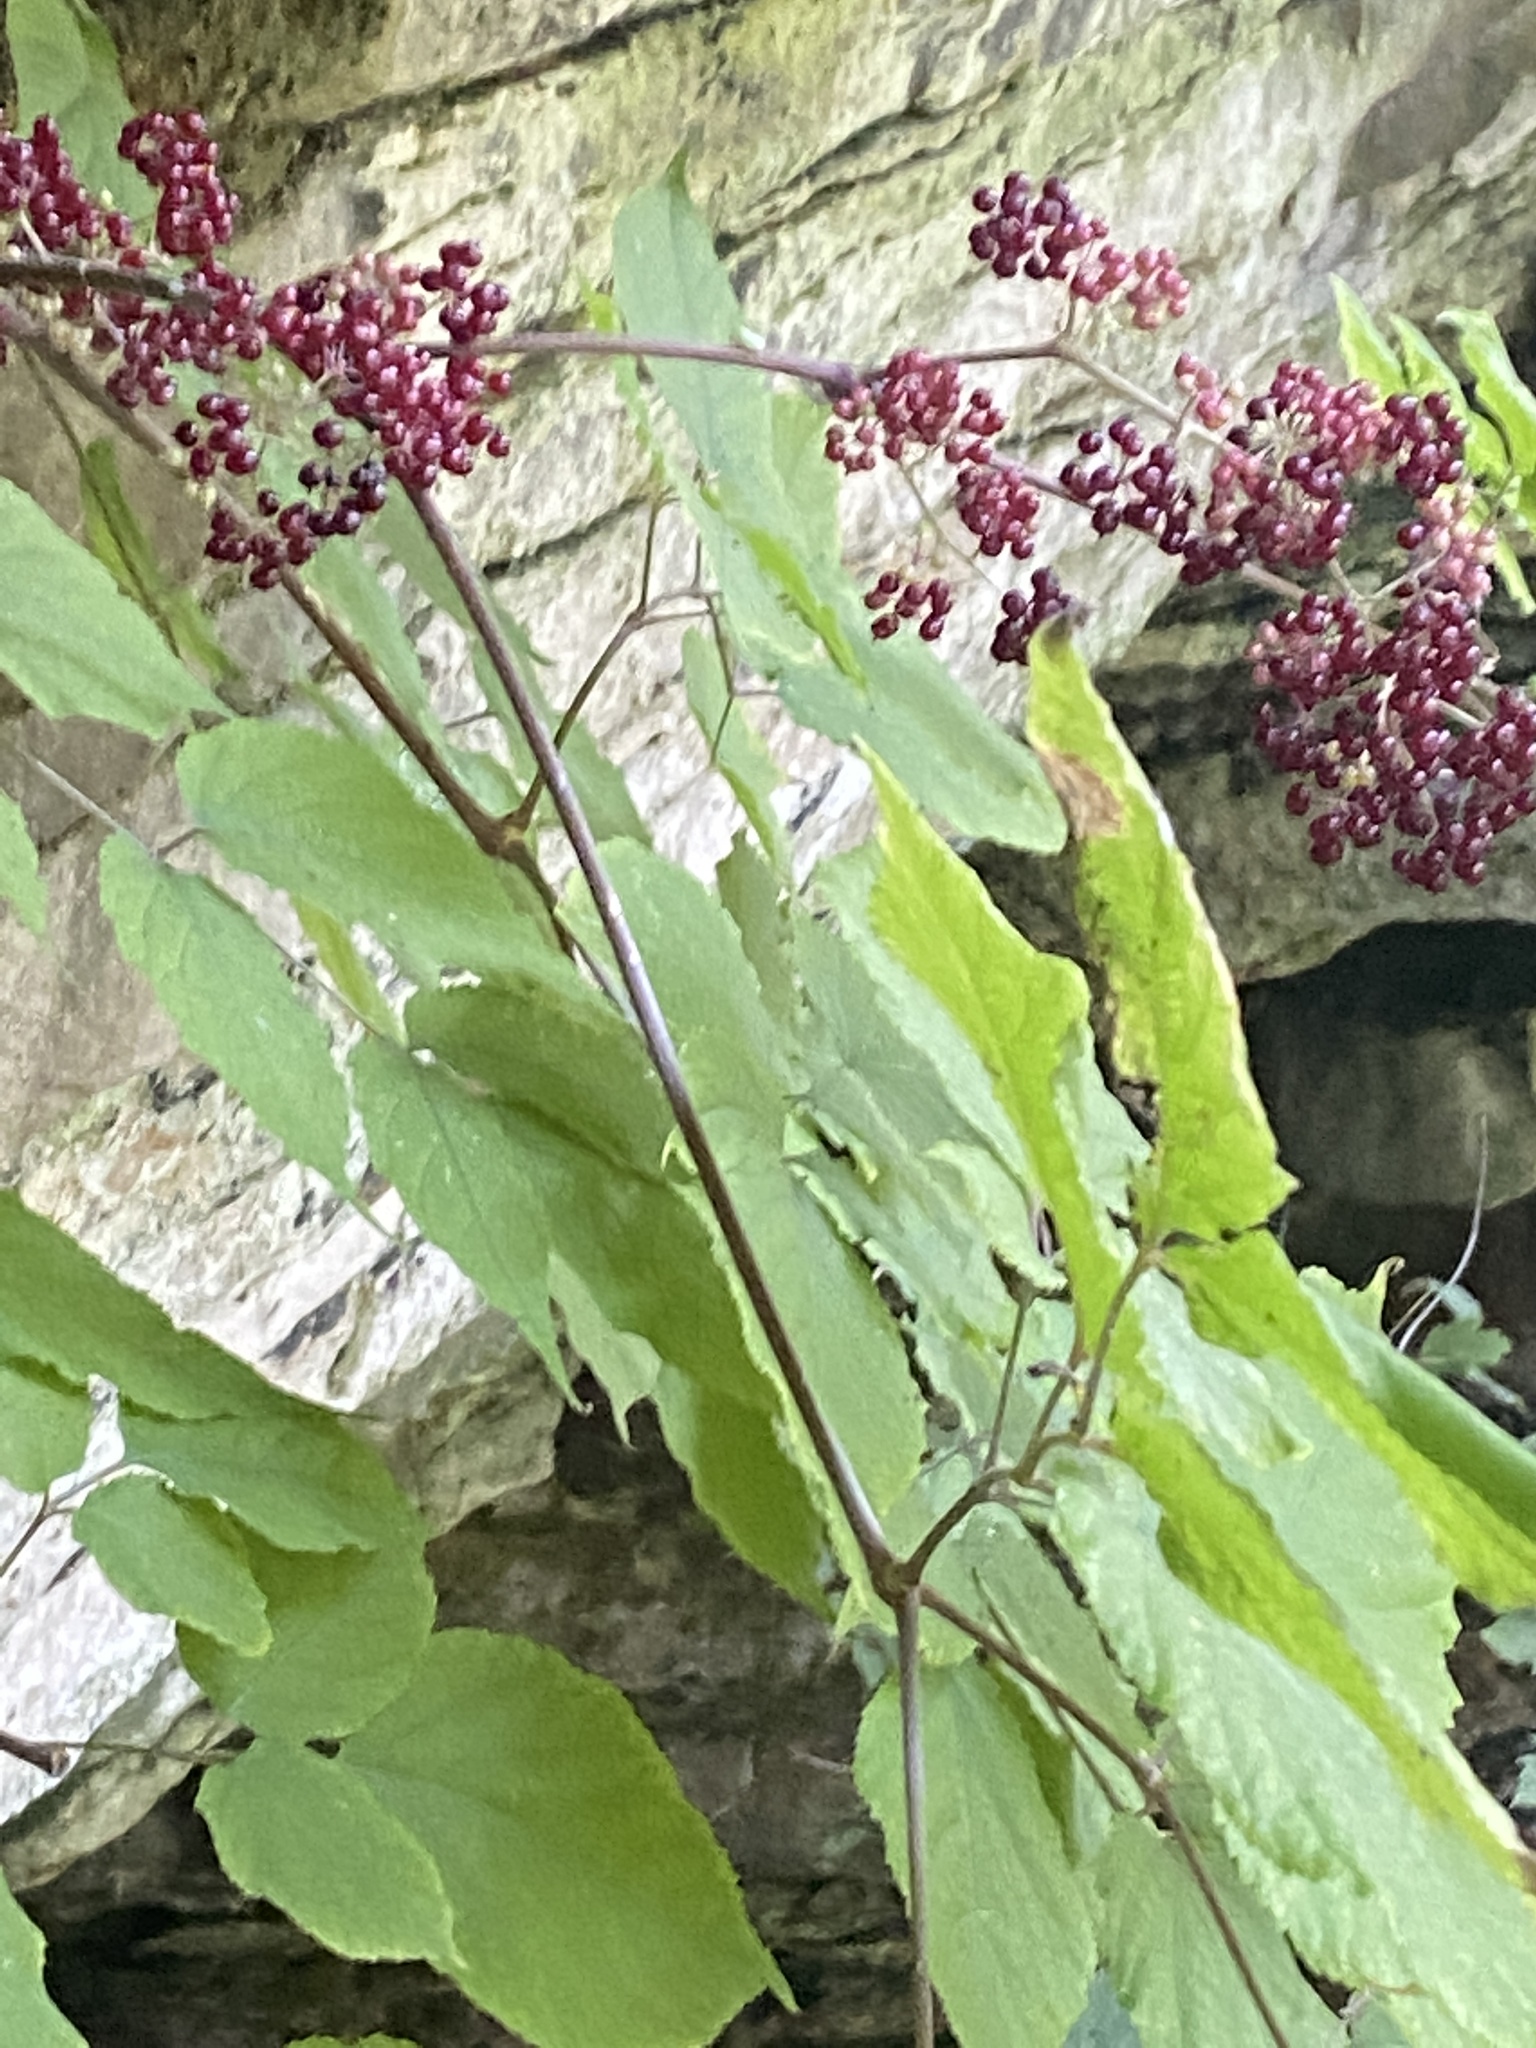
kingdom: Plantae
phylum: Tracheophyta
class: Magnoliopsida
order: Apiales
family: Araliaceae
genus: Aralia
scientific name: Aralia racemosa
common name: American-spikenard
